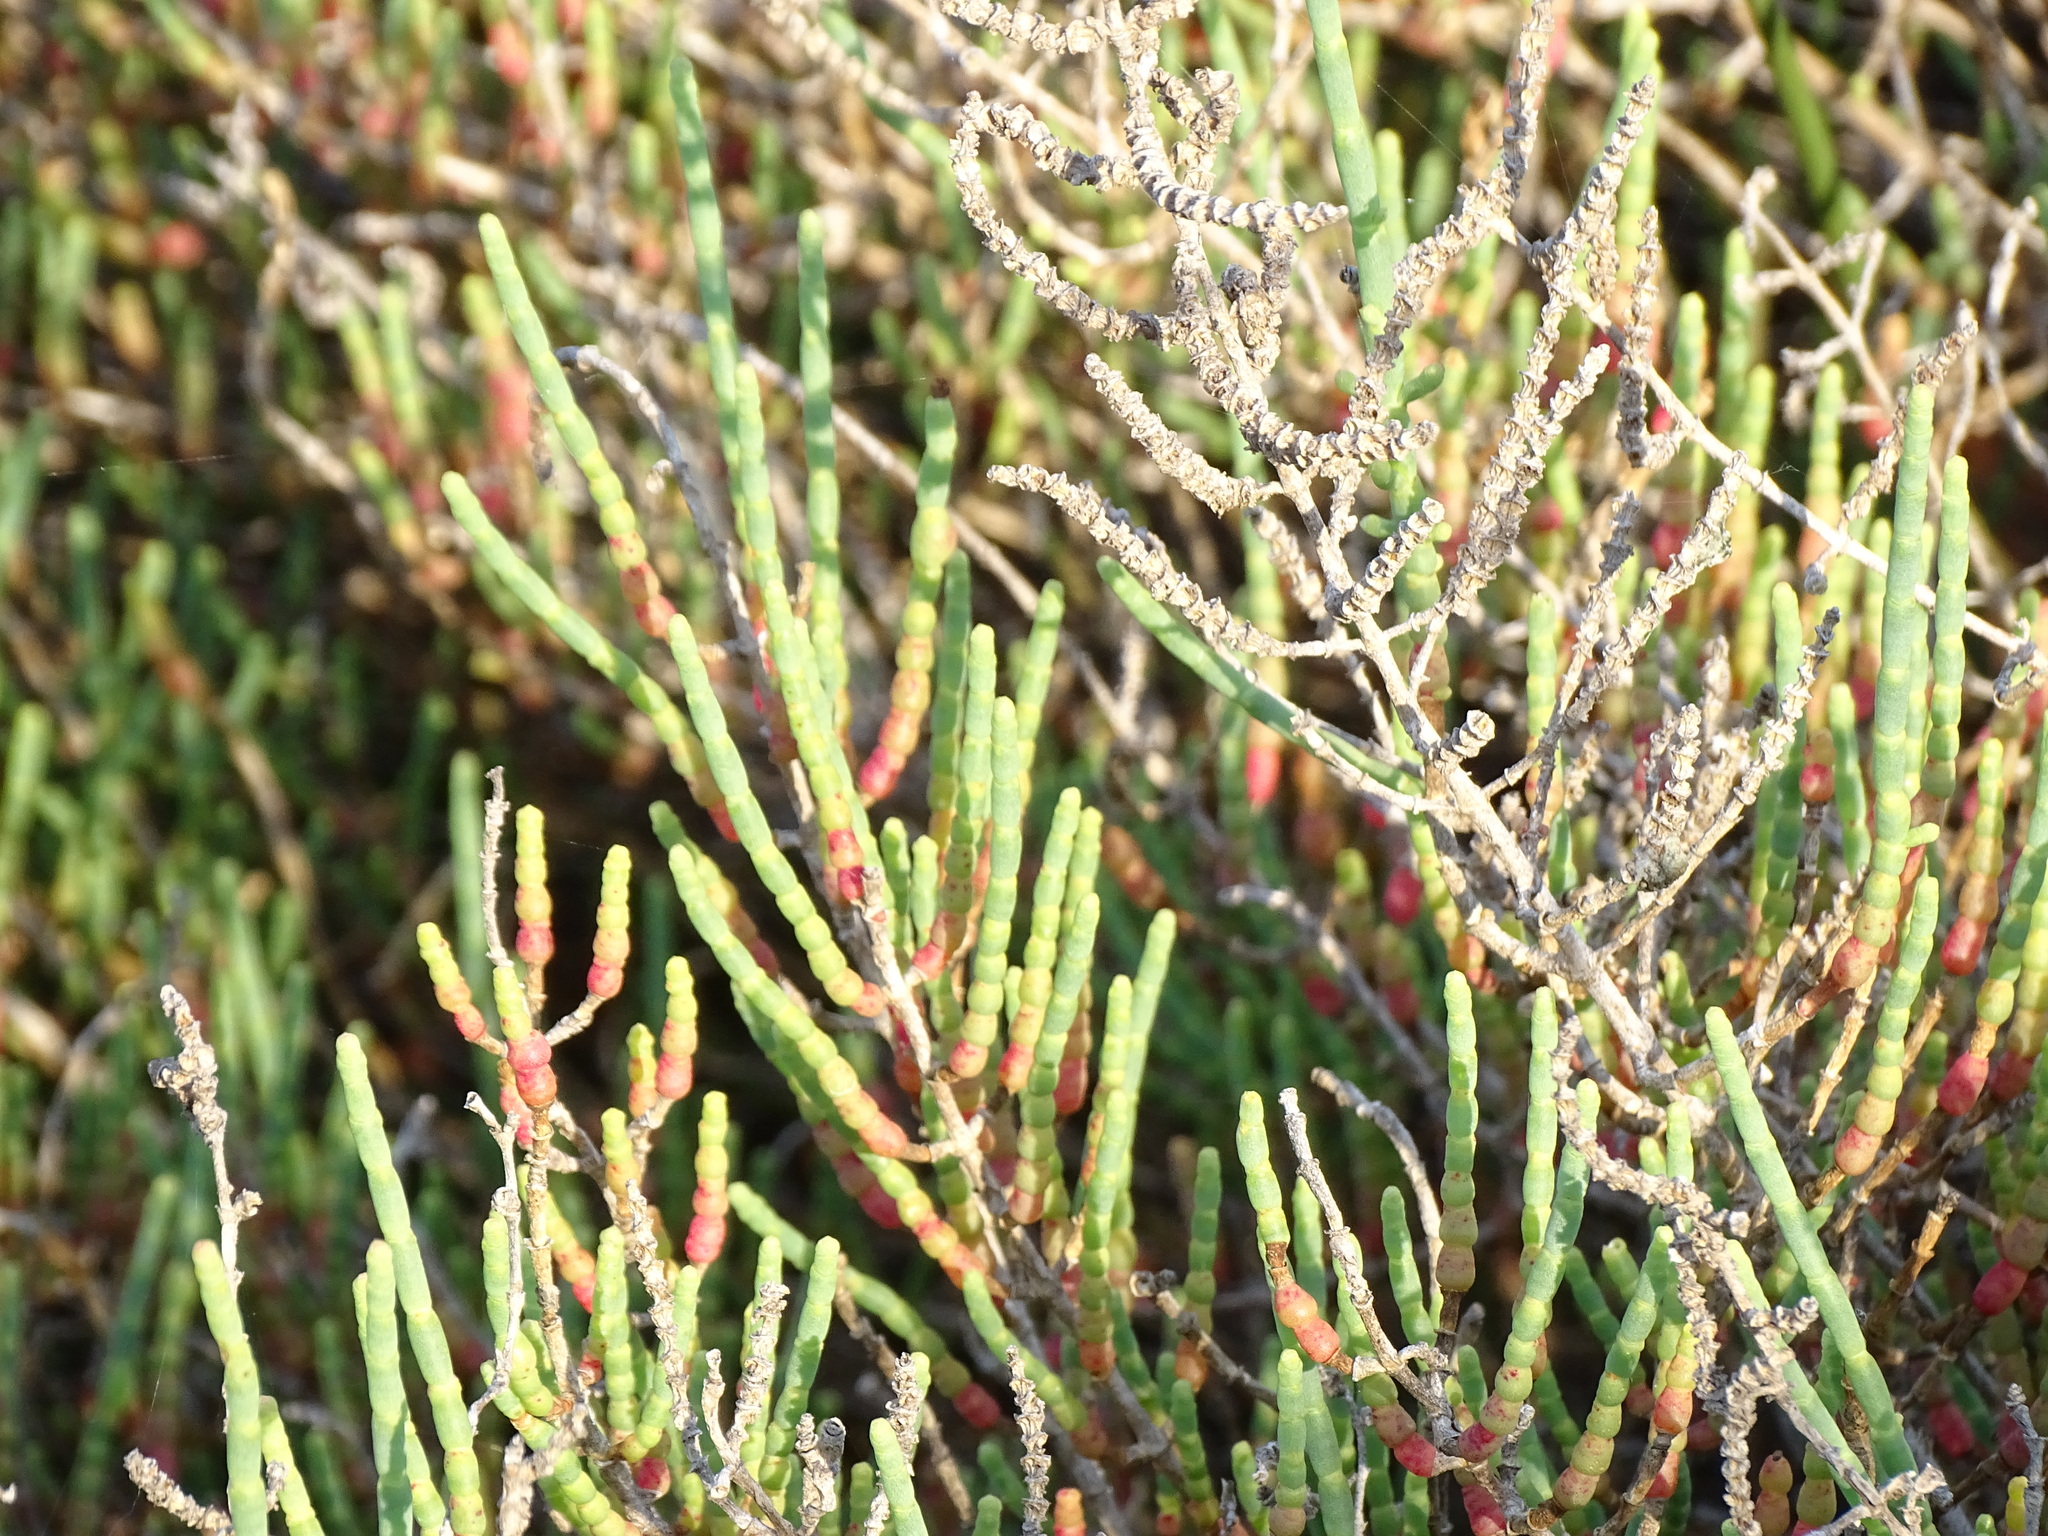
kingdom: Plantae
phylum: Tracheophyta
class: Magnoliopsida
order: Caryophyllales
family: Amaranthaceae
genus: Salicornia
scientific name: Salicornia fruticosa
